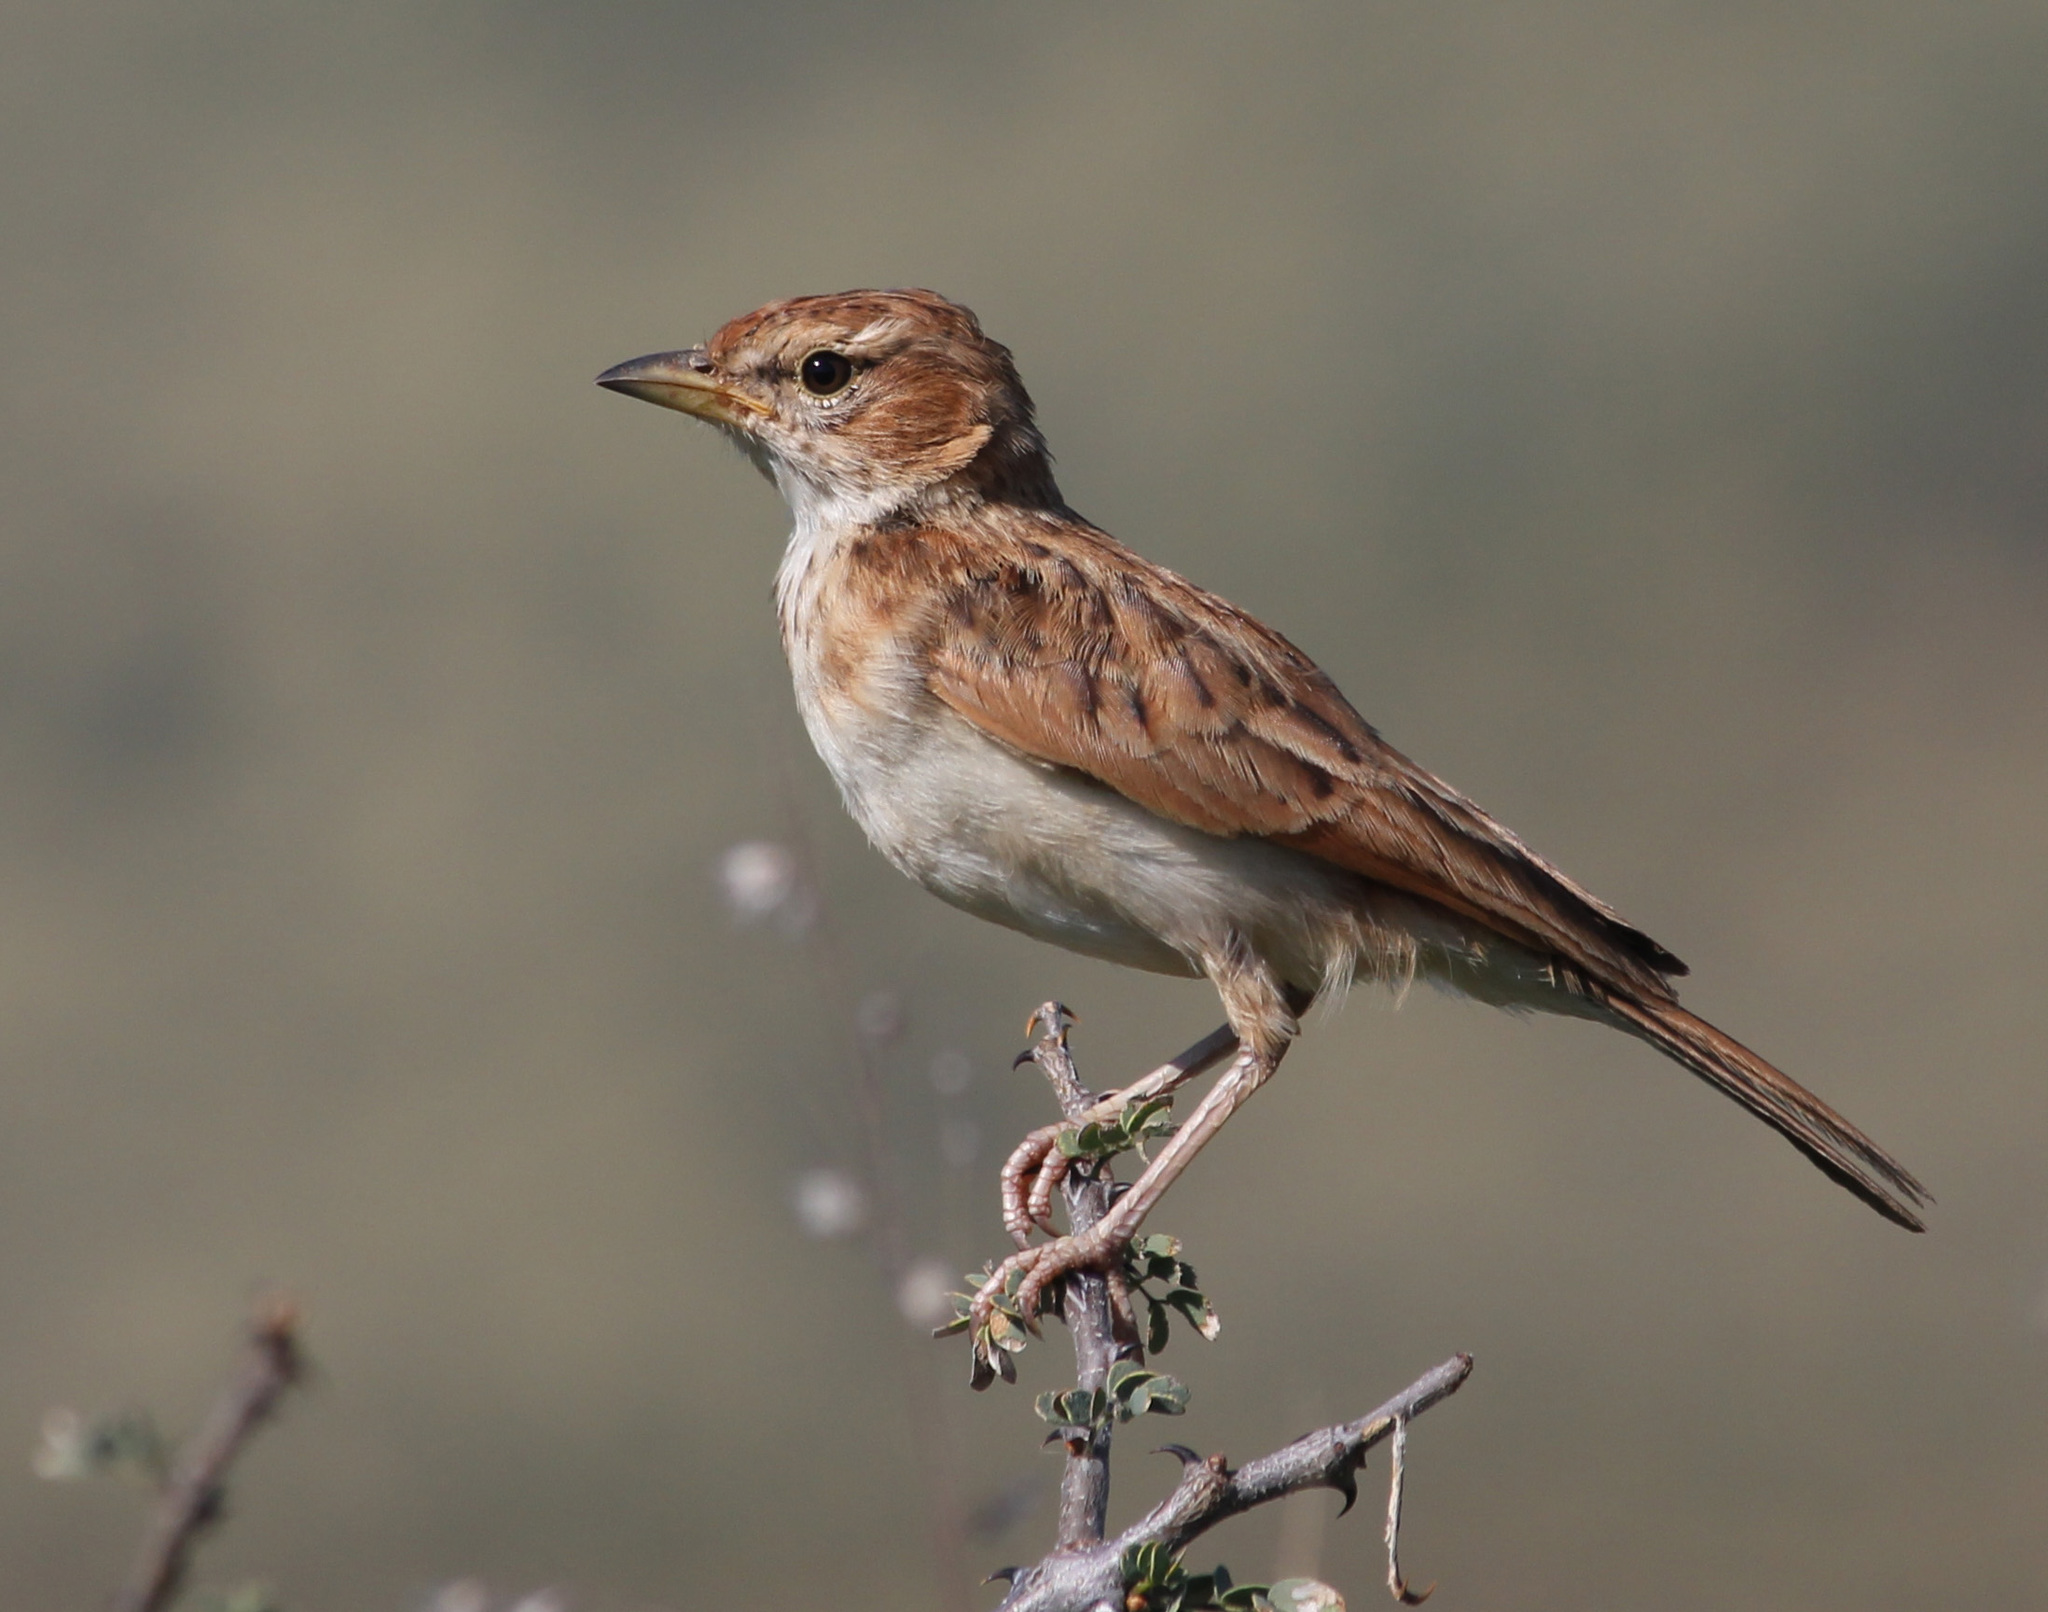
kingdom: Animalia
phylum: Chordata
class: Aves
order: Passeriformes
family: Alaudidae
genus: Calendulauda
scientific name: Calendulauda africanoides
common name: Fawn-colored lark
